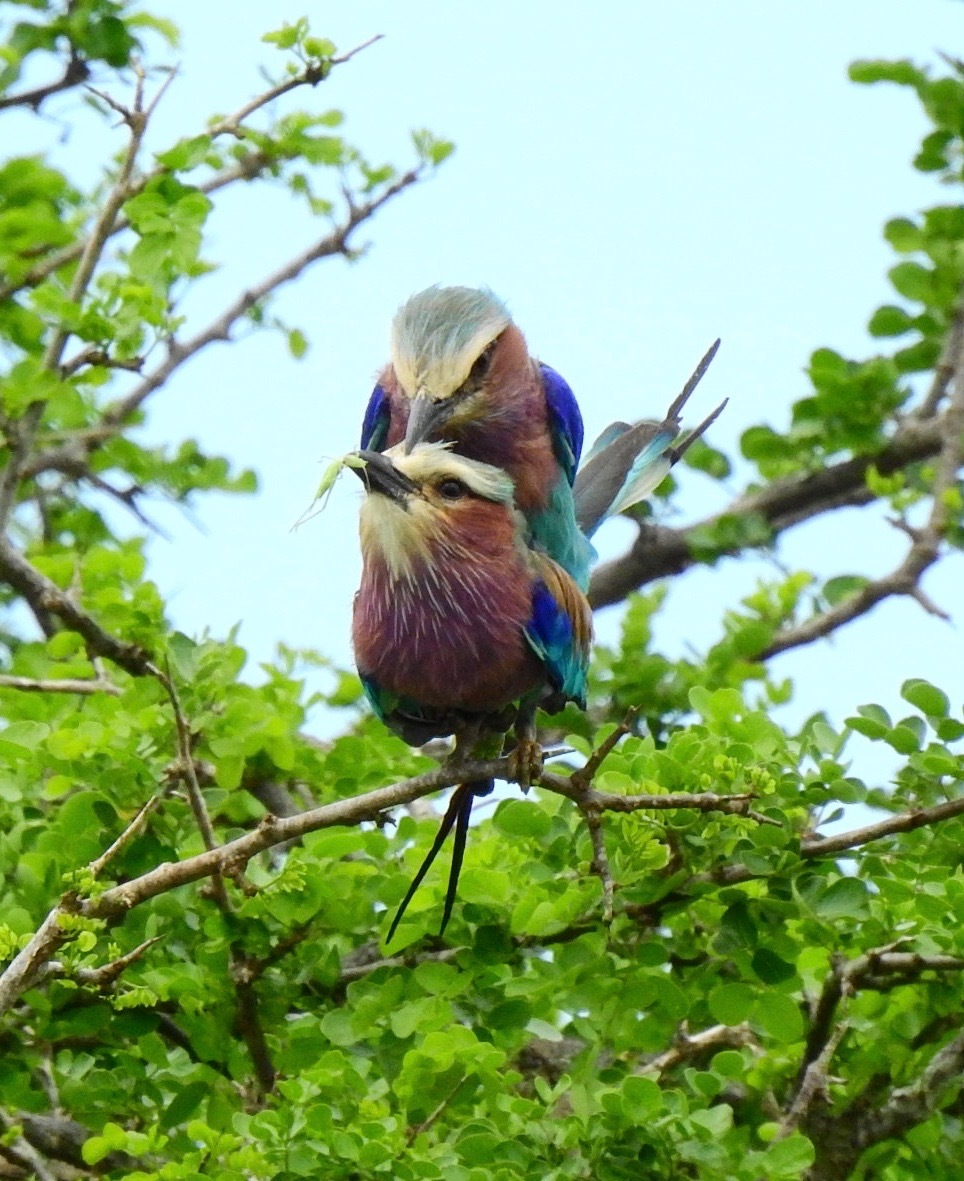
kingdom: Animalia
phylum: Chordata
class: Aves
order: Coraciiformes
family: Coraciidae
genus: Coracias
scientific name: Coracias caudatus
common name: Lilac-breasted roller
